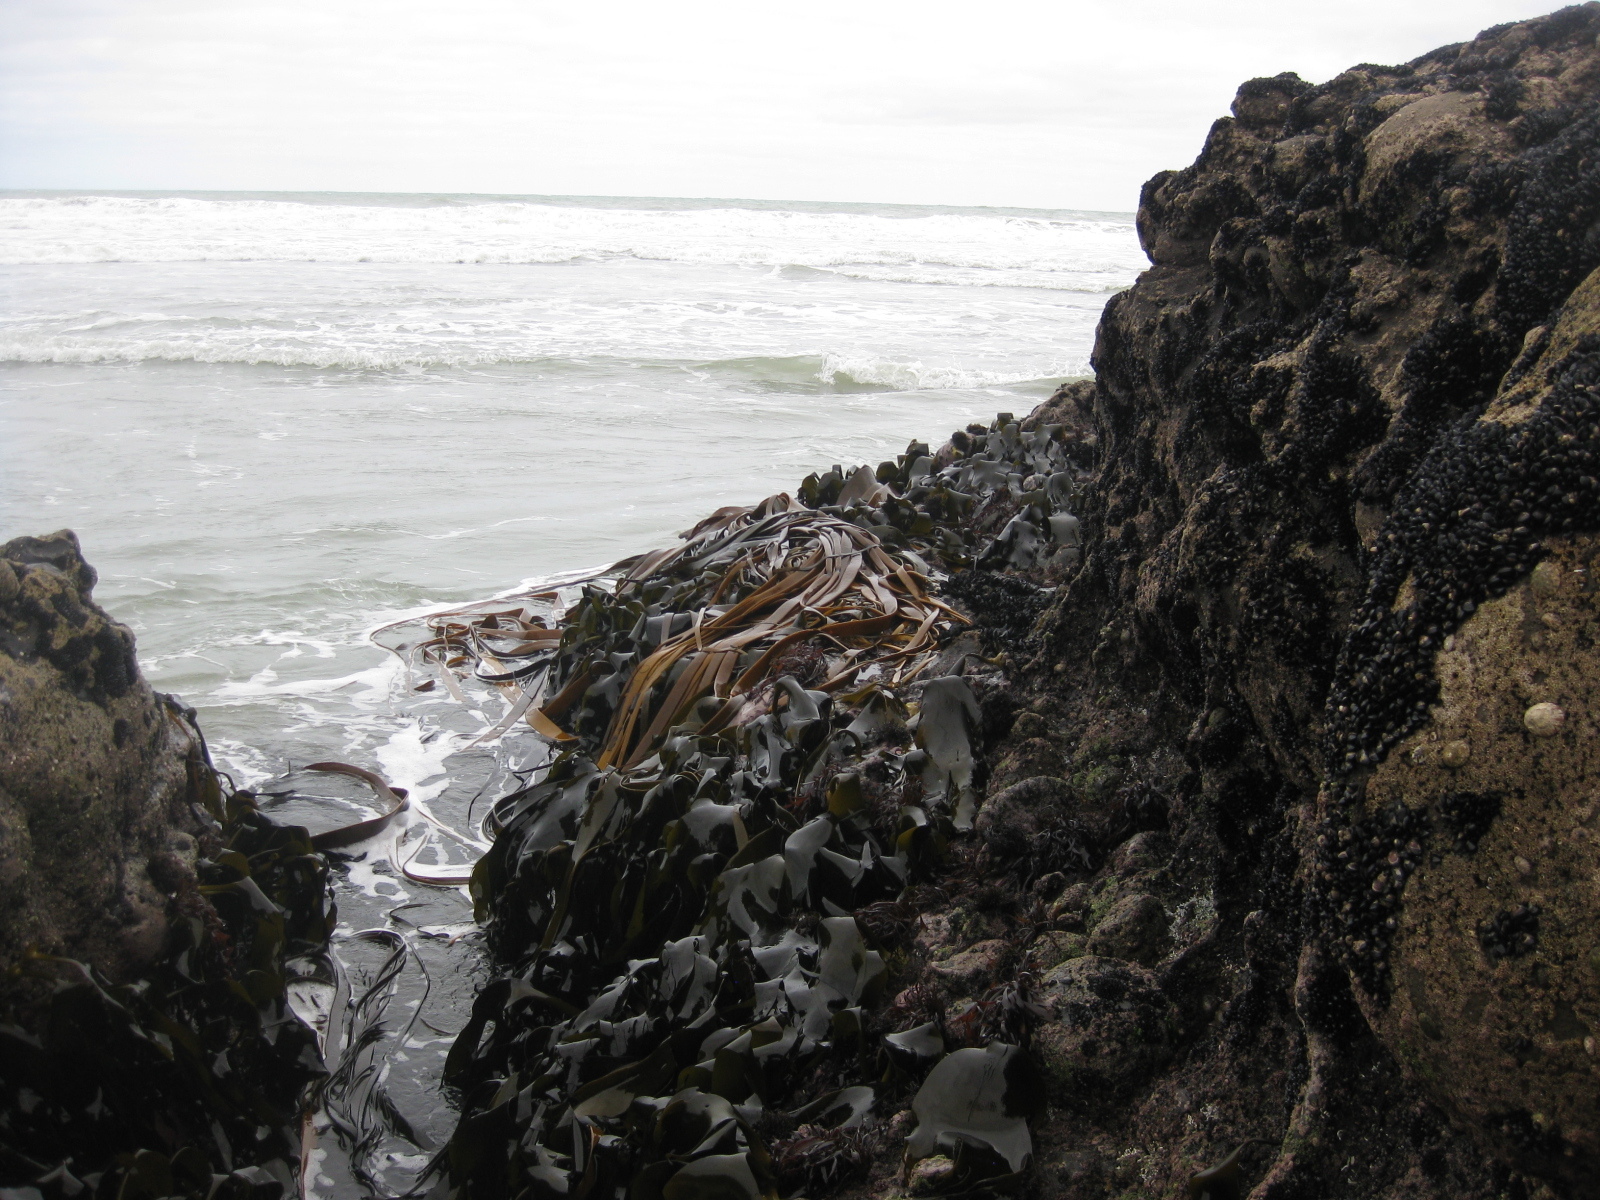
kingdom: Chromista
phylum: Ochrophyta
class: Phaeophyceae
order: Fucales
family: Durvillaeaceae
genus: Durvillaea
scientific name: Durvillaea antarctica
